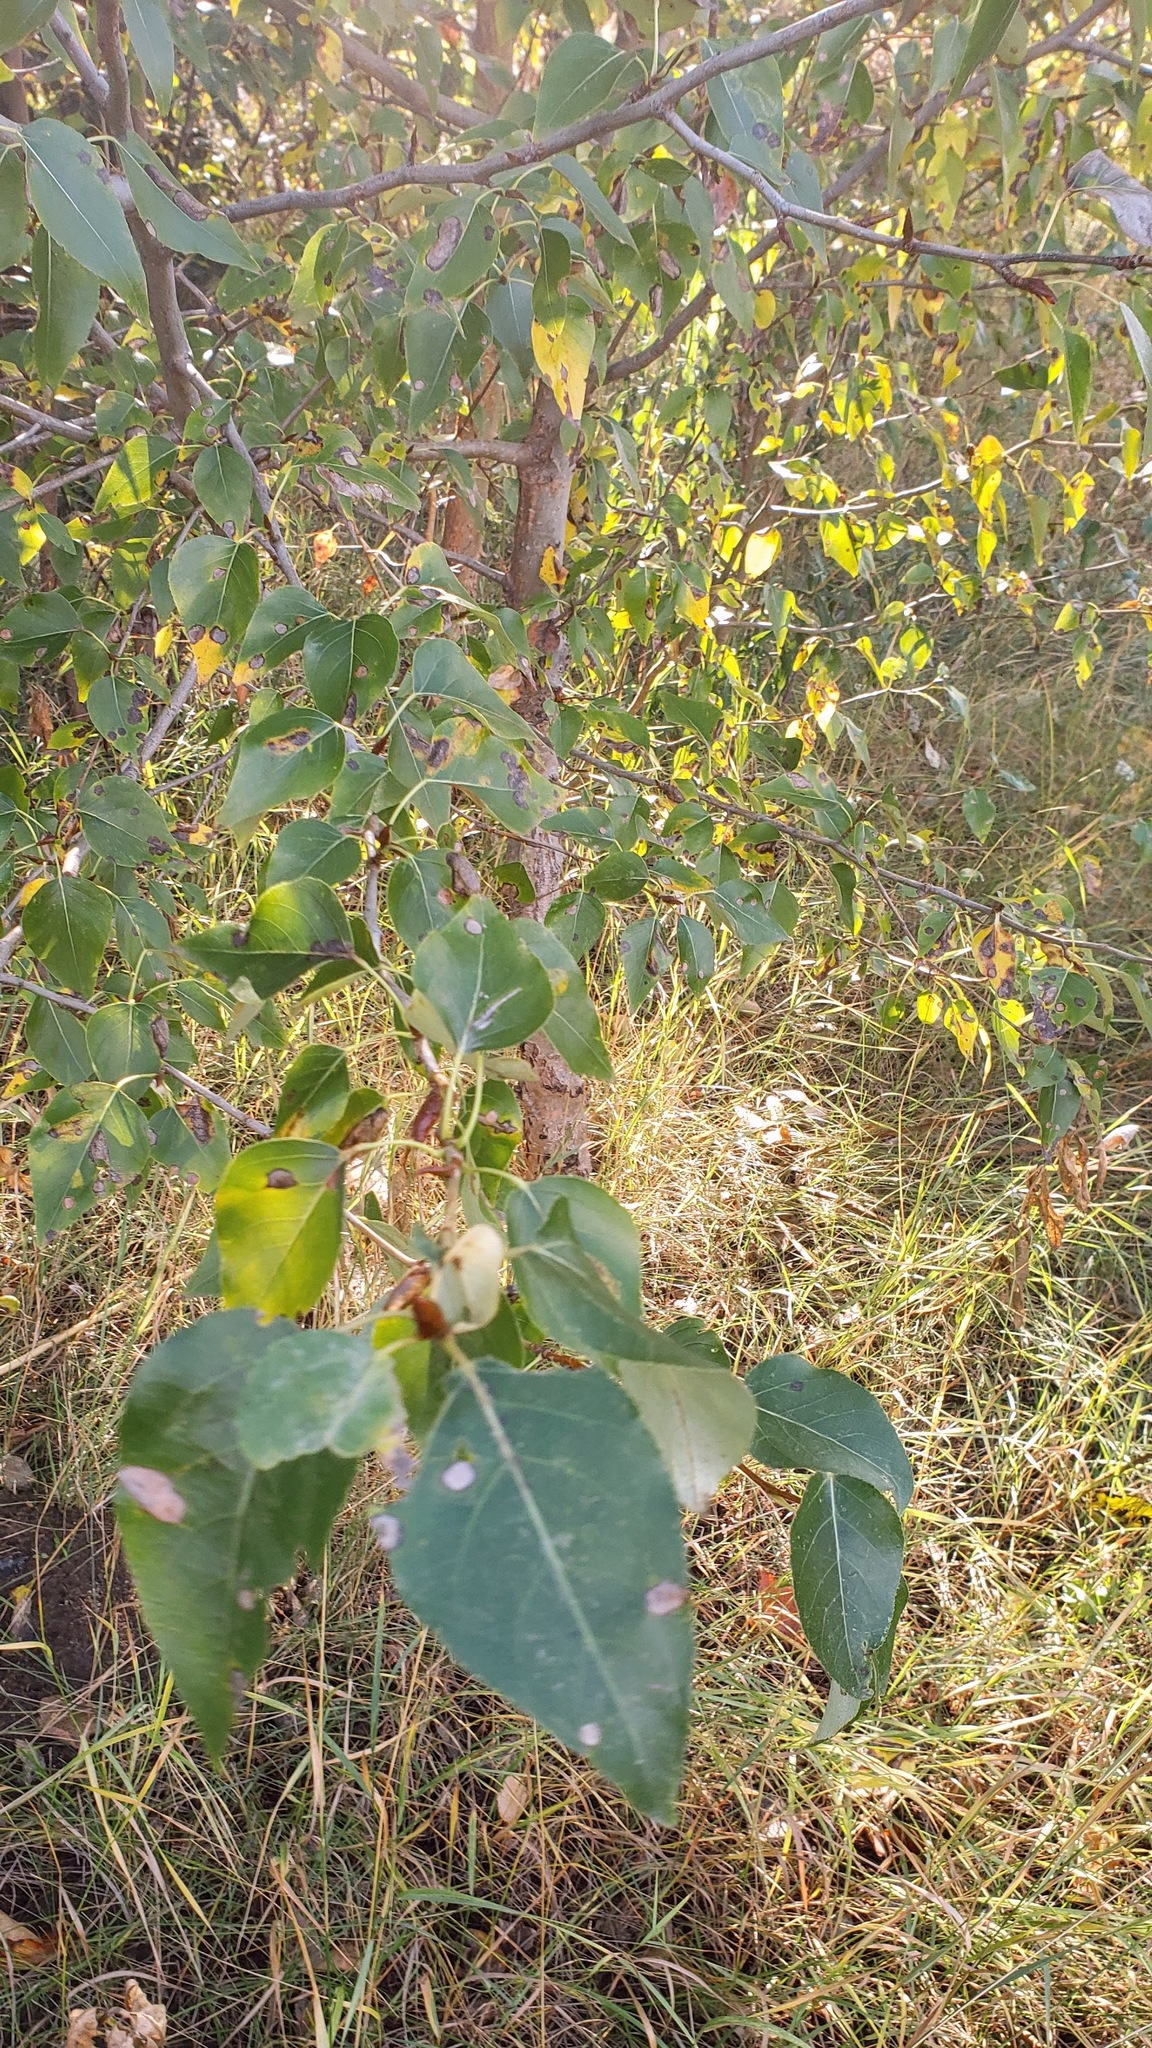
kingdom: Plantae
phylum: Tracheophyta
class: Magnoliopsida
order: Malpighiales
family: Salicaceae
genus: Populus
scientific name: Populus trichocarpa
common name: Black cottonwood
